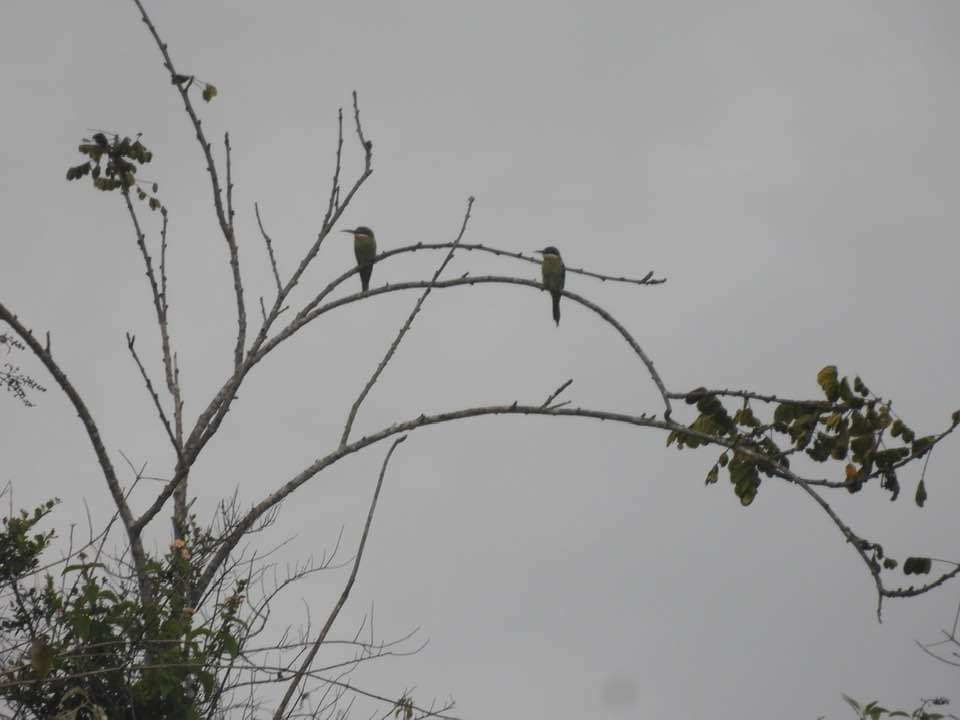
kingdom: Animalia
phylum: Chordata
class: Aves
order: Coraciiformes
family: Meropidae
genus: Merops
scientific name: Merops superciliosus
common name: Olive bee-eater
